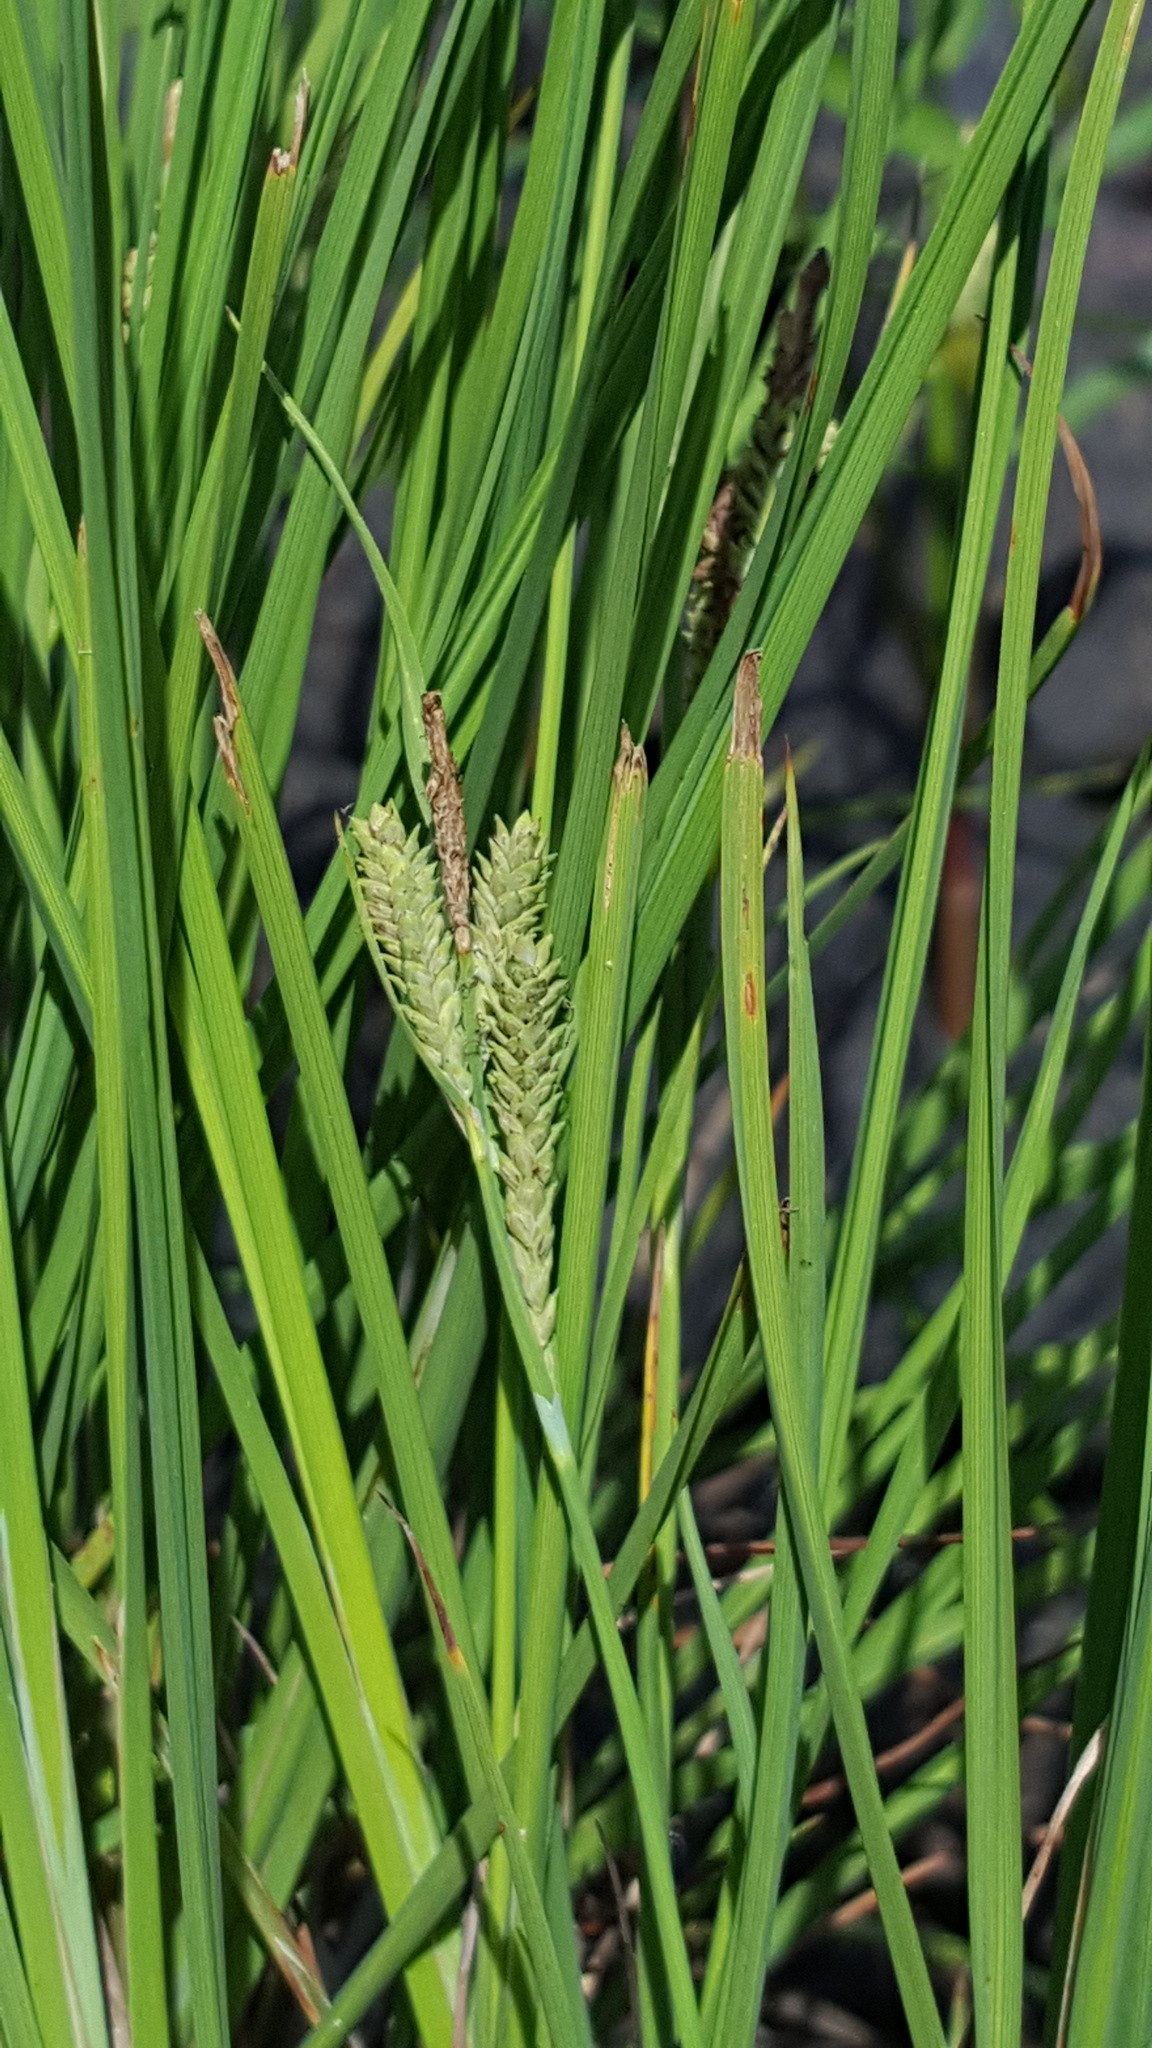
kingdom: Plantae
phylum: Tracheophyta
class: Liliopsida
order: Poales
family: Cyperaceae
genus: Carex
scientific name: Carex lenticularis
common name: Lakeshore sedge
